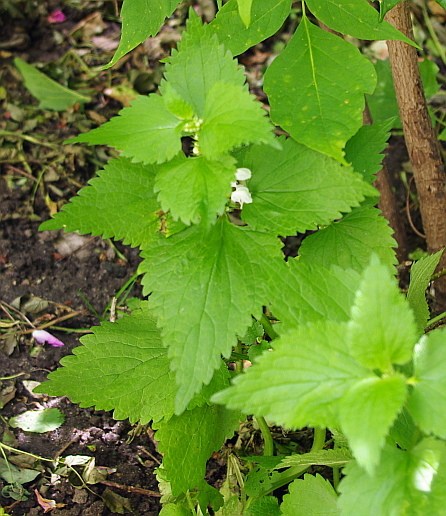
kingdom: Plantae
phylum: Tracheophyta
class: Magnoliopsida
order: Lamiales
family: Lamiaceae
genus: Lamium
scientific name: Lamium album
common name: White dead-nettle
